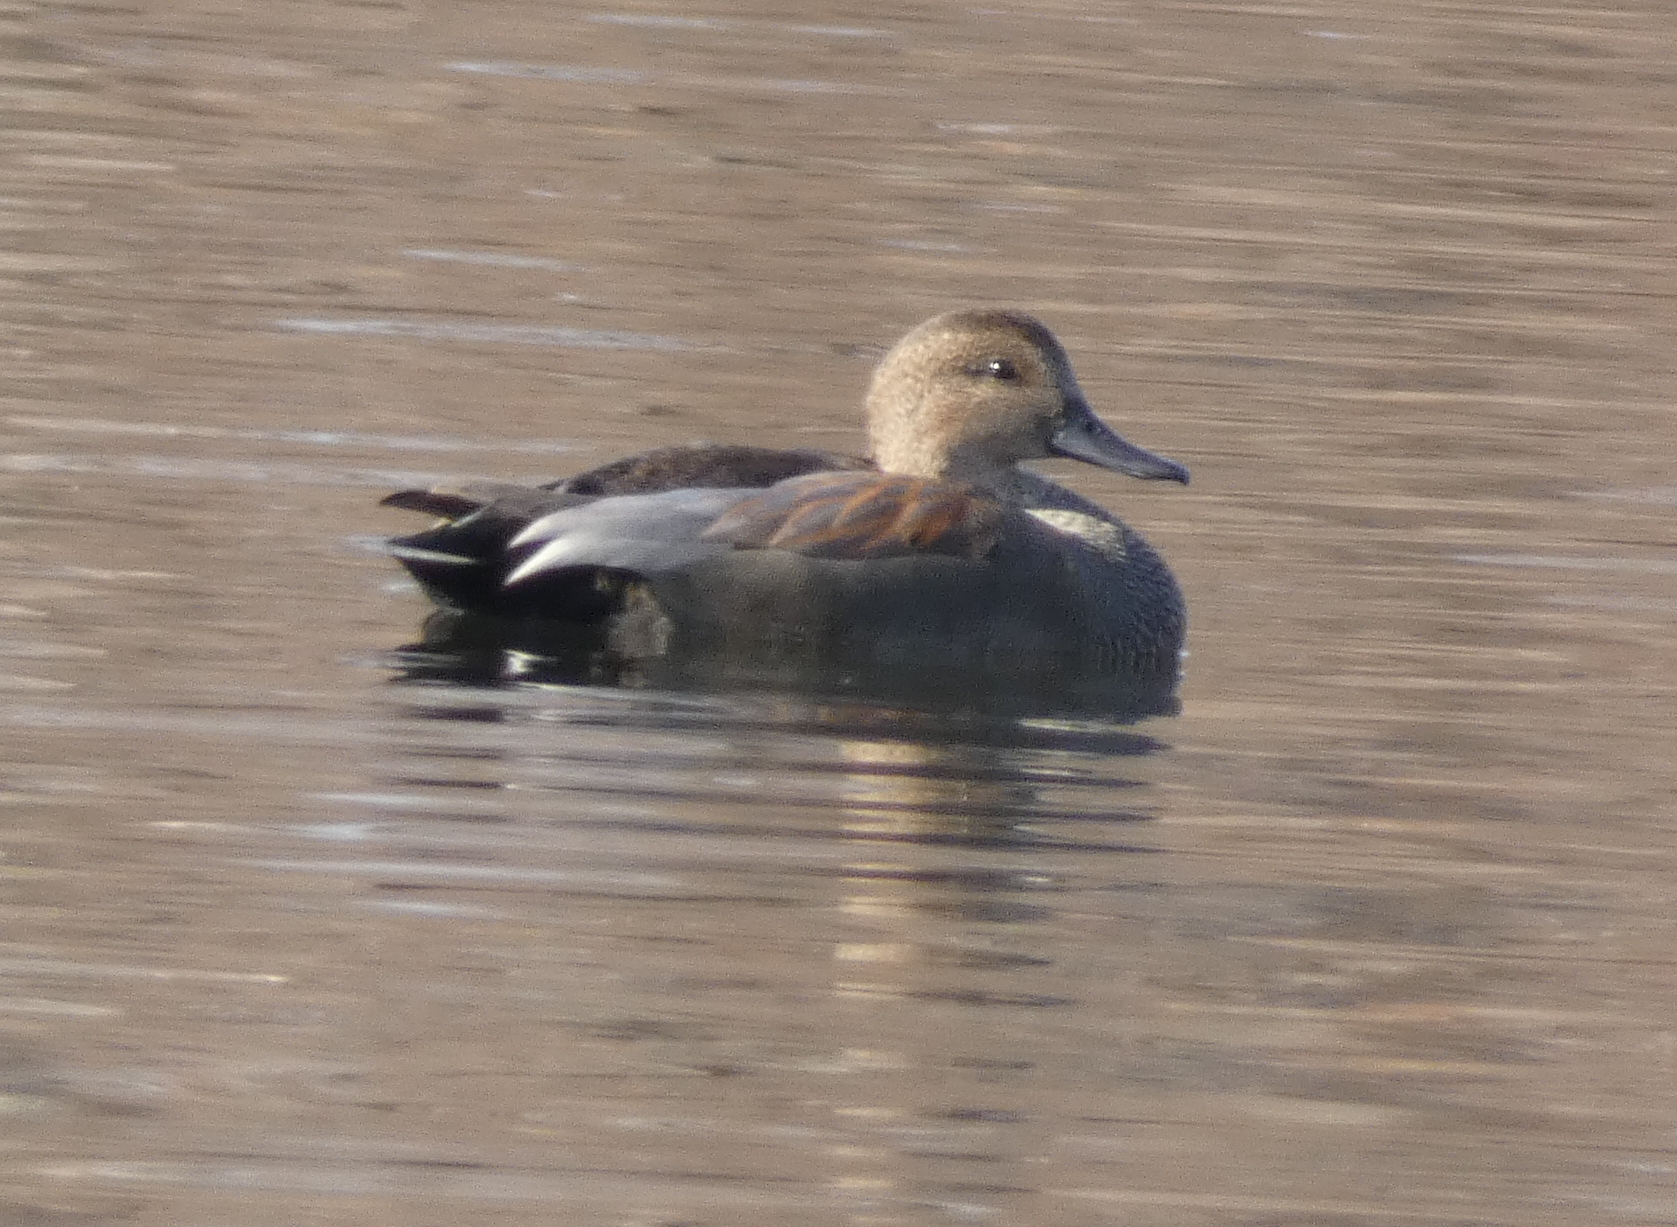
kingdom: Animalia
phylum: Chordata
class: Aves
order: Anseriformes
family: Anatidae
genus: Mareca
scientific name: Mareca strepera
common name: Gadwall
